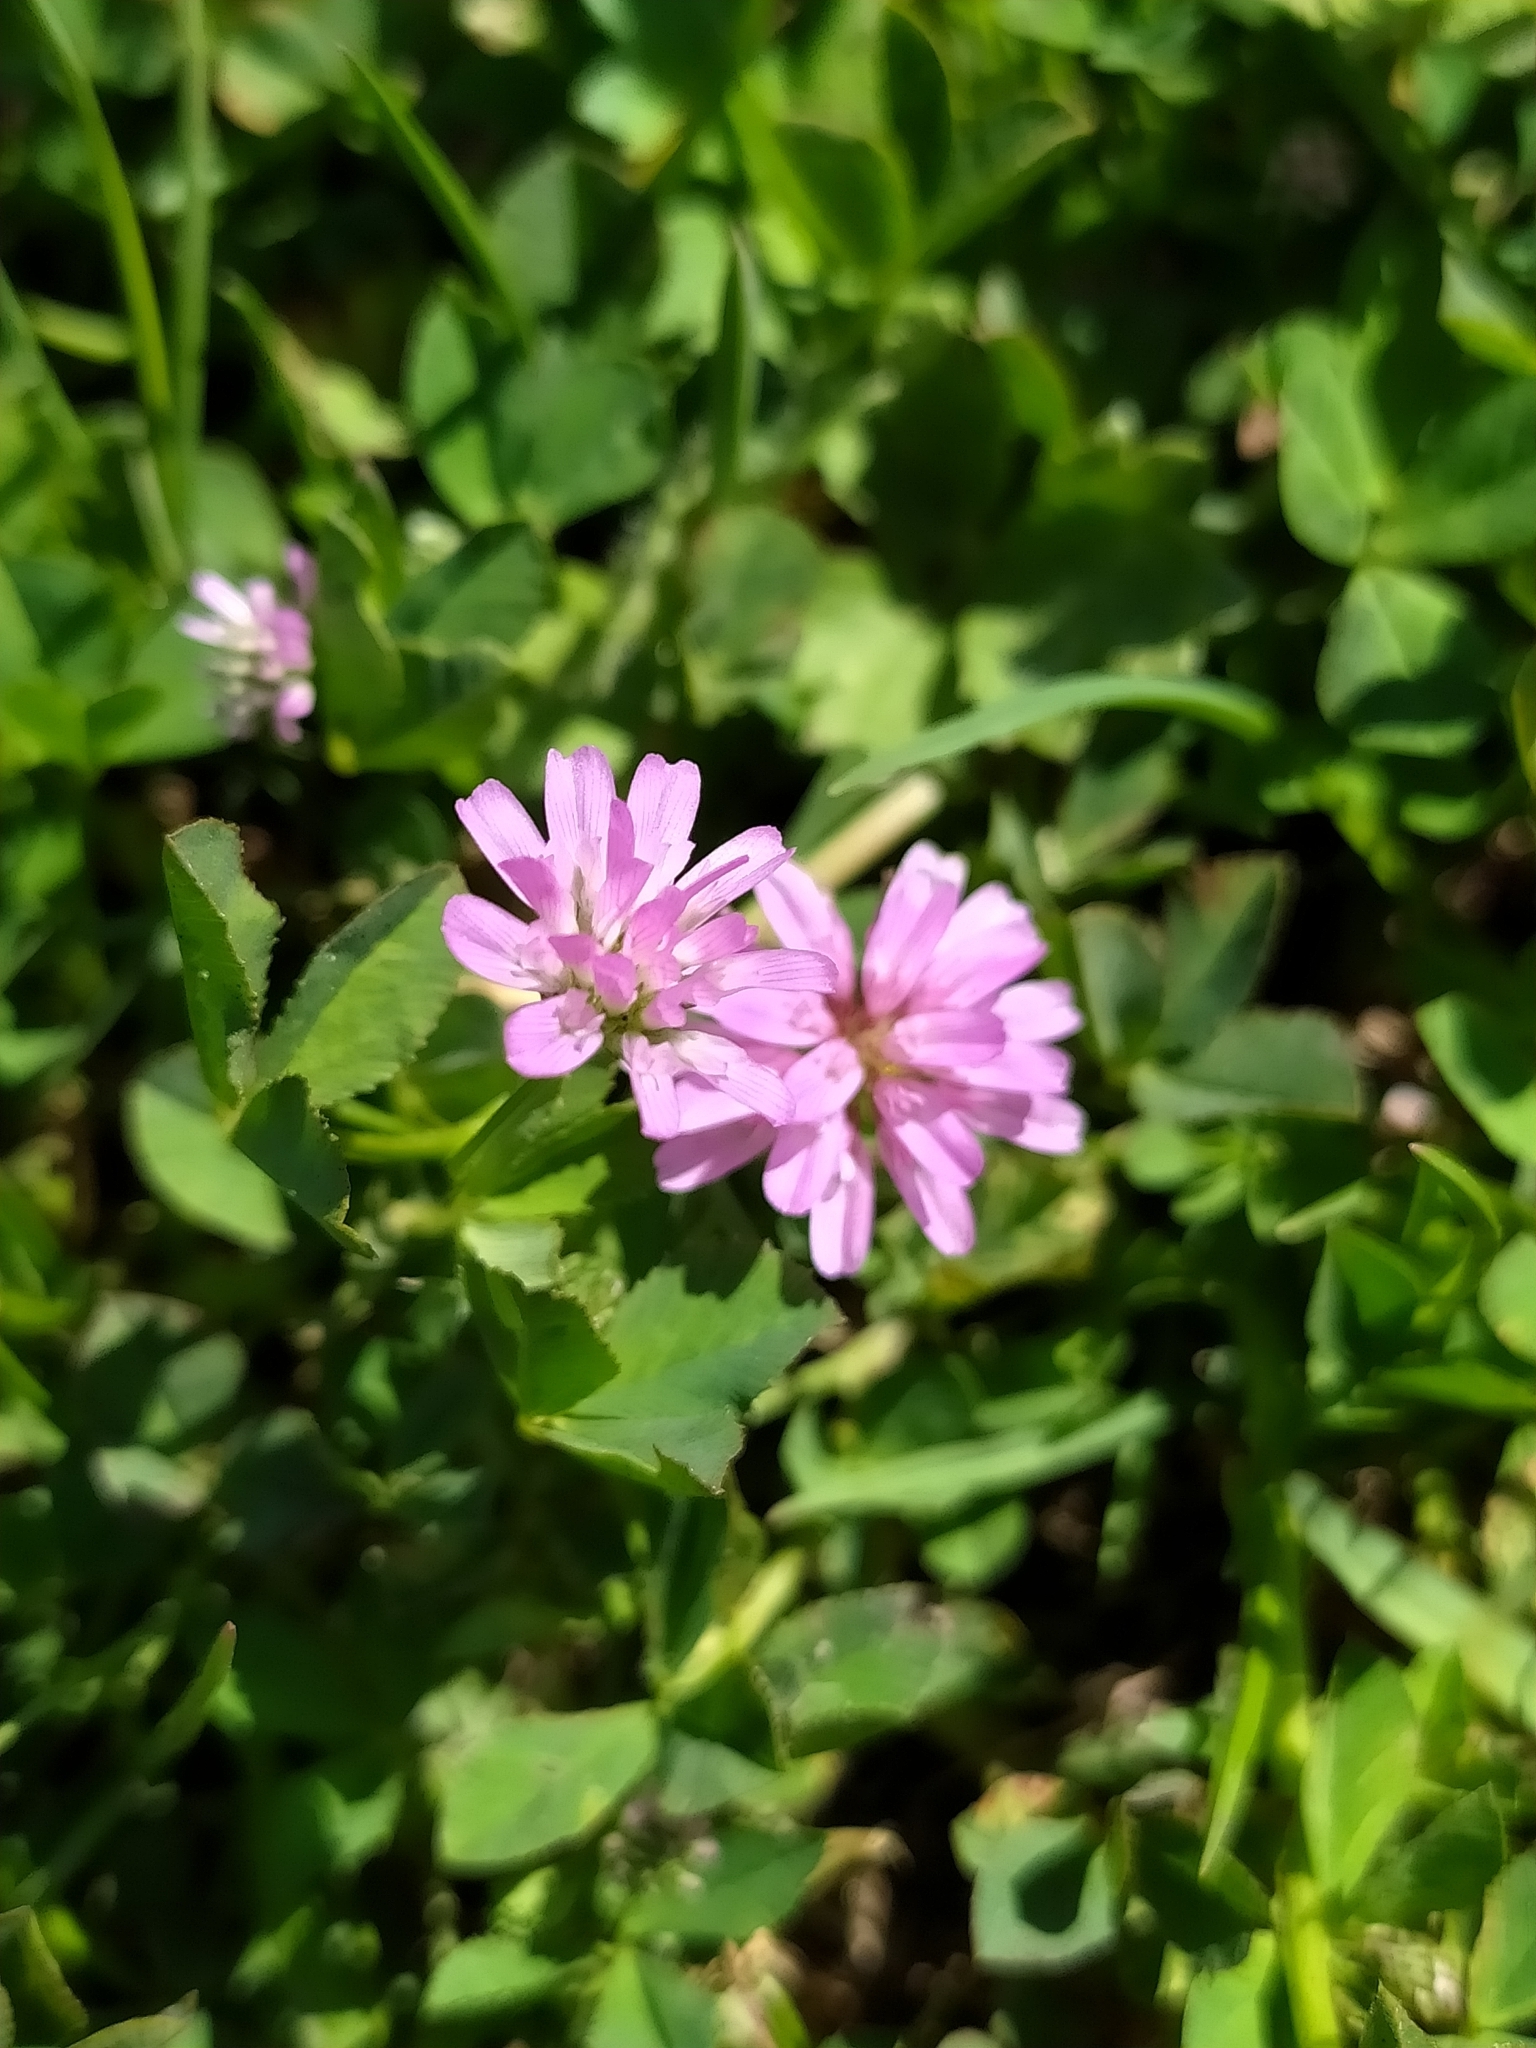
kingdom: Plantae
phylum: Tracheophyta
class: Magnoliopsida
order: Fabales
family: Fabaceae
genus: Trifolium
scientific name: Trifolium resupinatum
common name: Reversed clover
